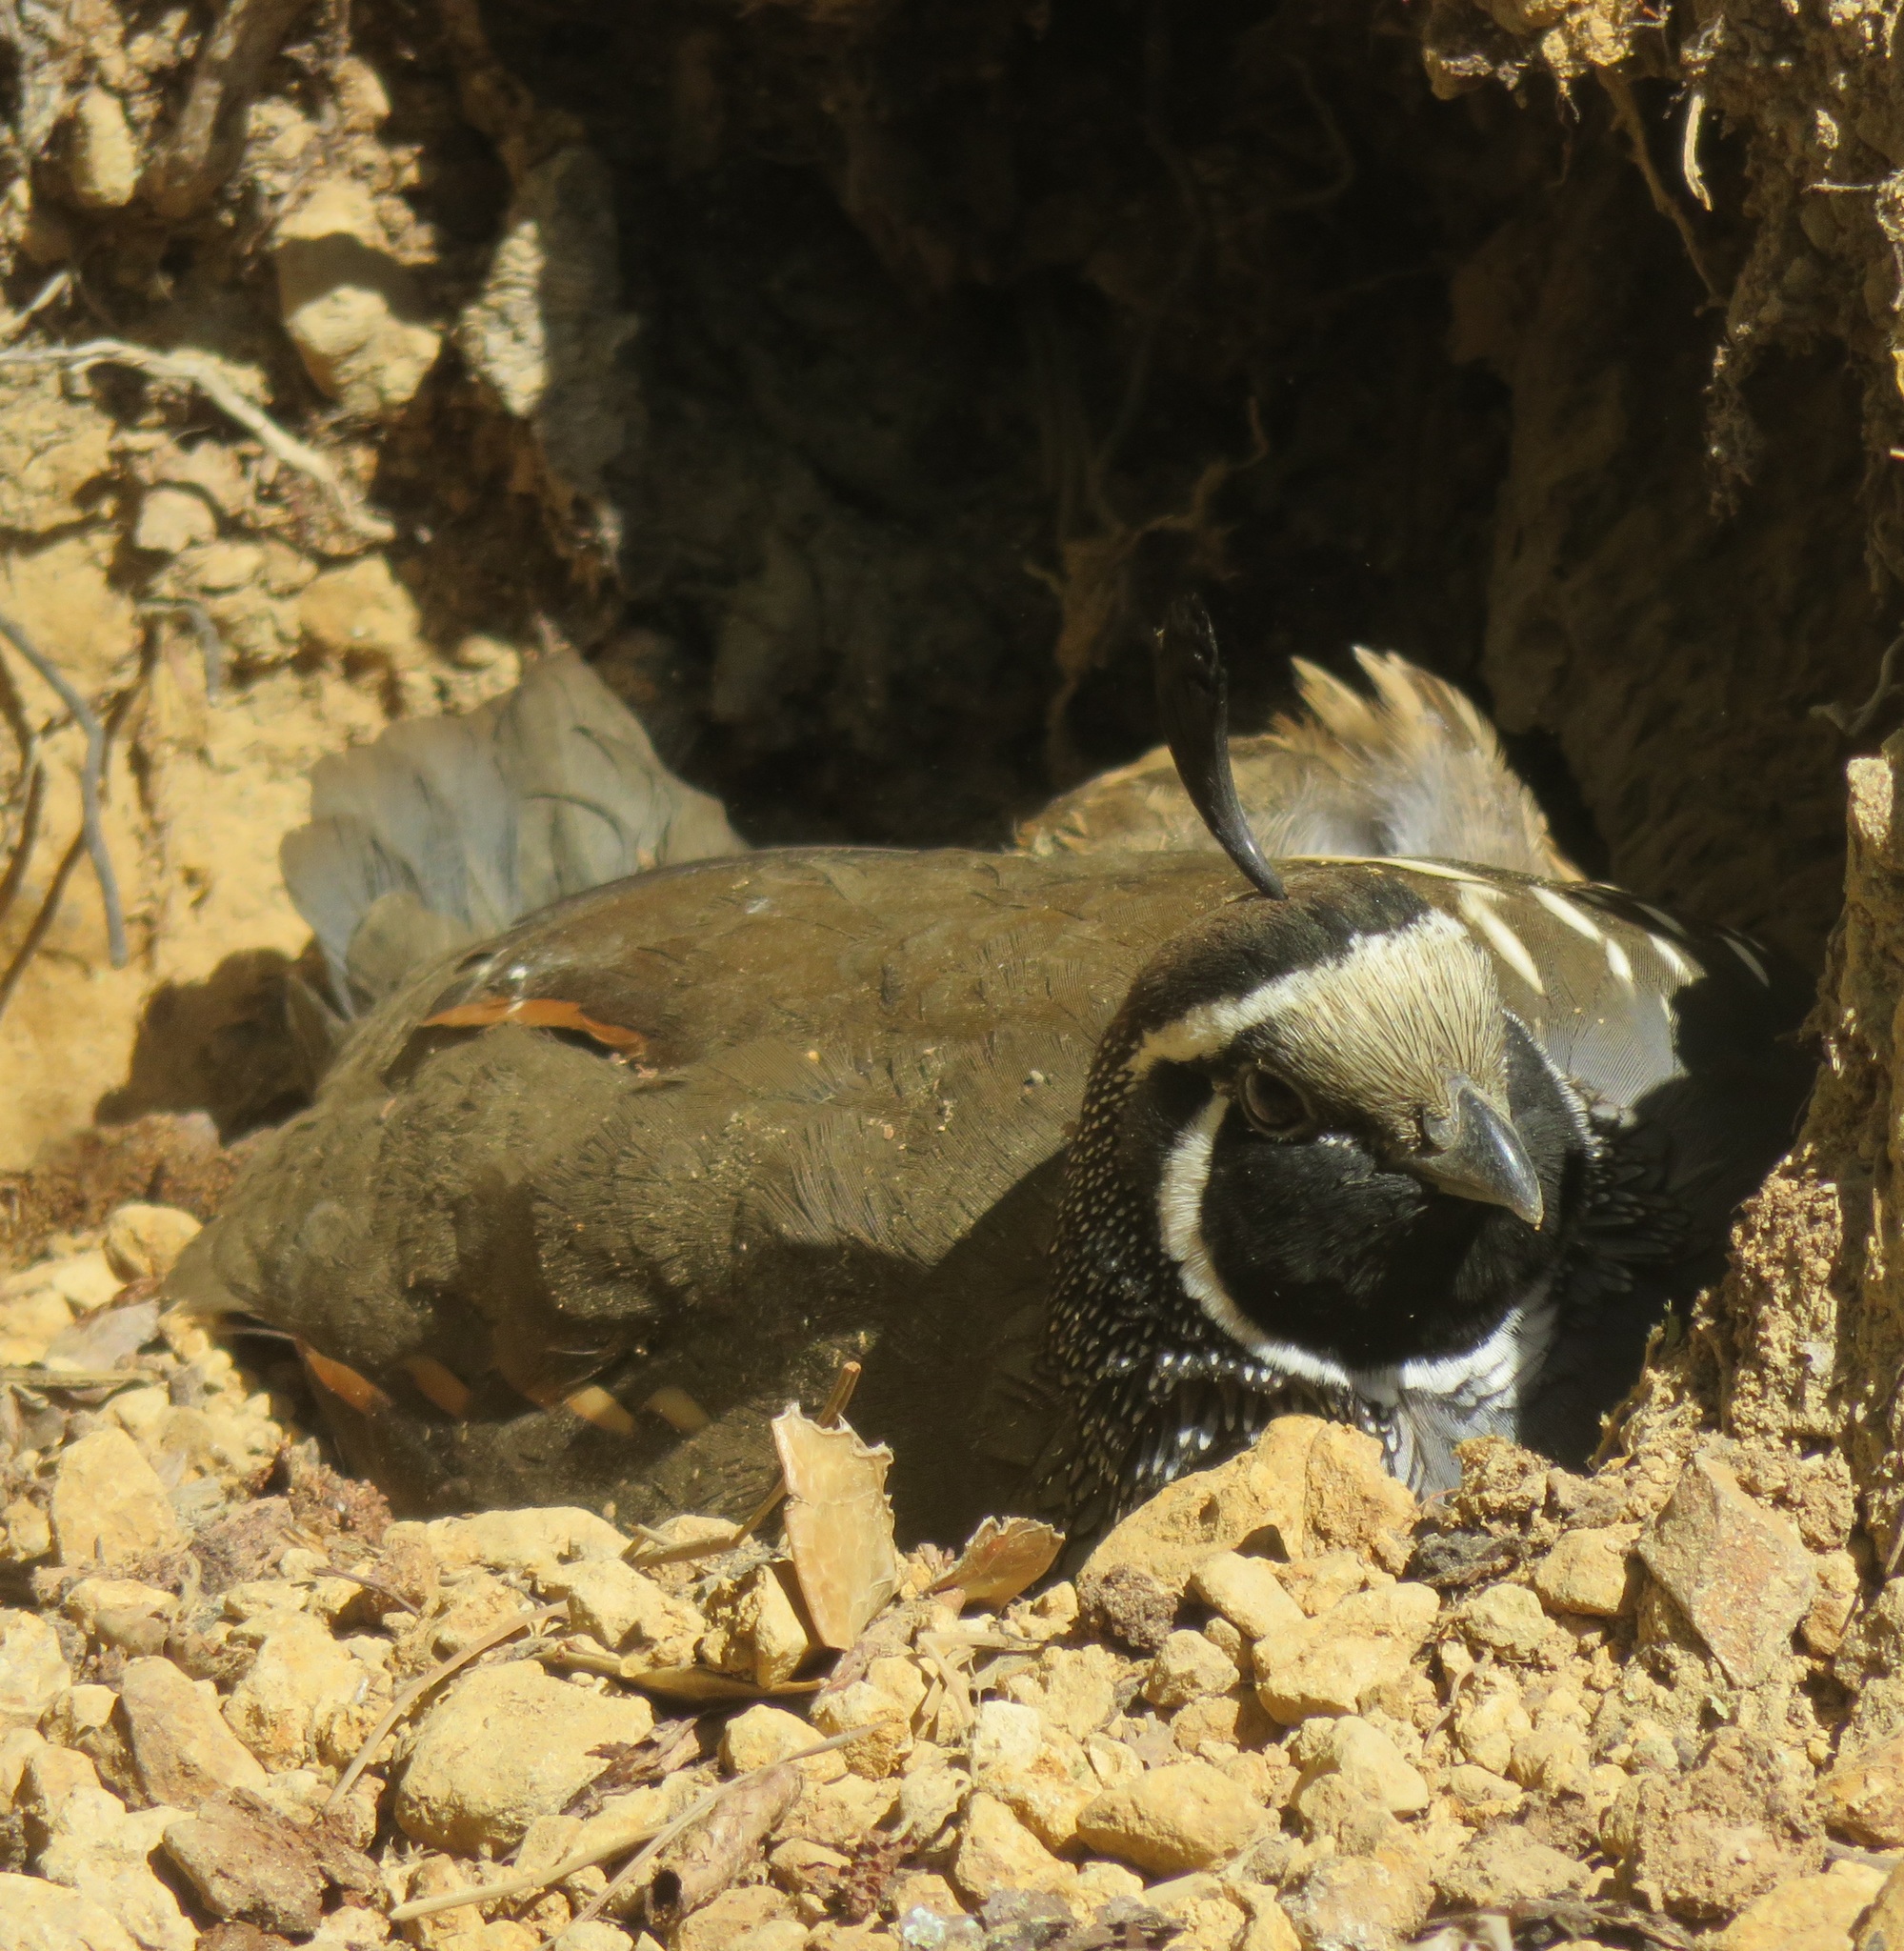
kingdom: Animalia
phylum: Chordata
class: Aves
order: Galliformes
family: Odontophoridae
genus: Callipepla
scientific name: Callipepla californica
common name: California quail
